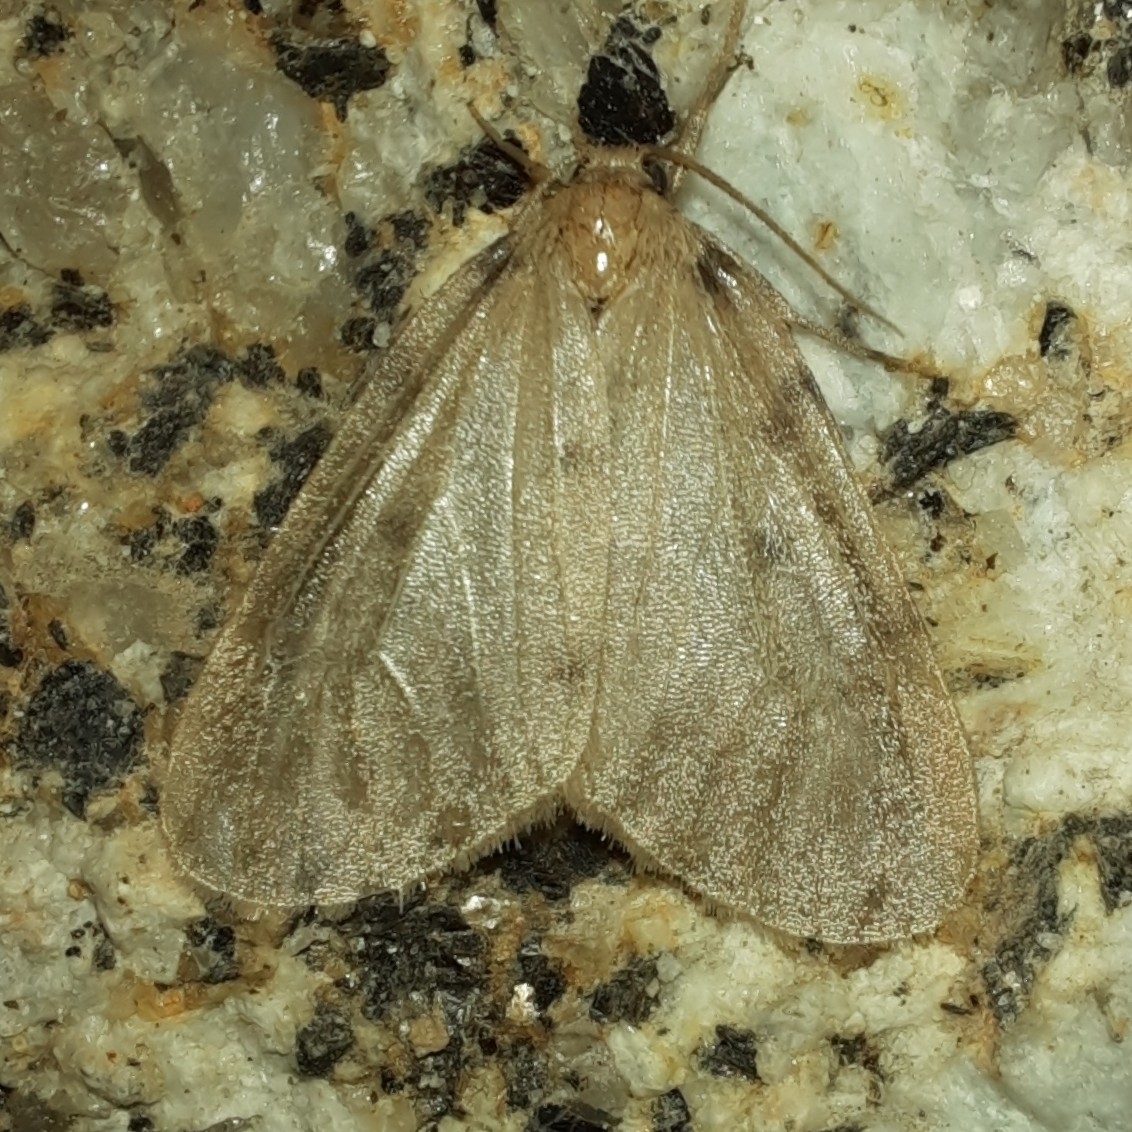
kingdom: Animalia
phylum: Arthropoda
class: Insecta
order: Lepidoptera
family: Erebidae
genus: Paidia
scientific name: Paidia rica
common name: Glaucous muslin
